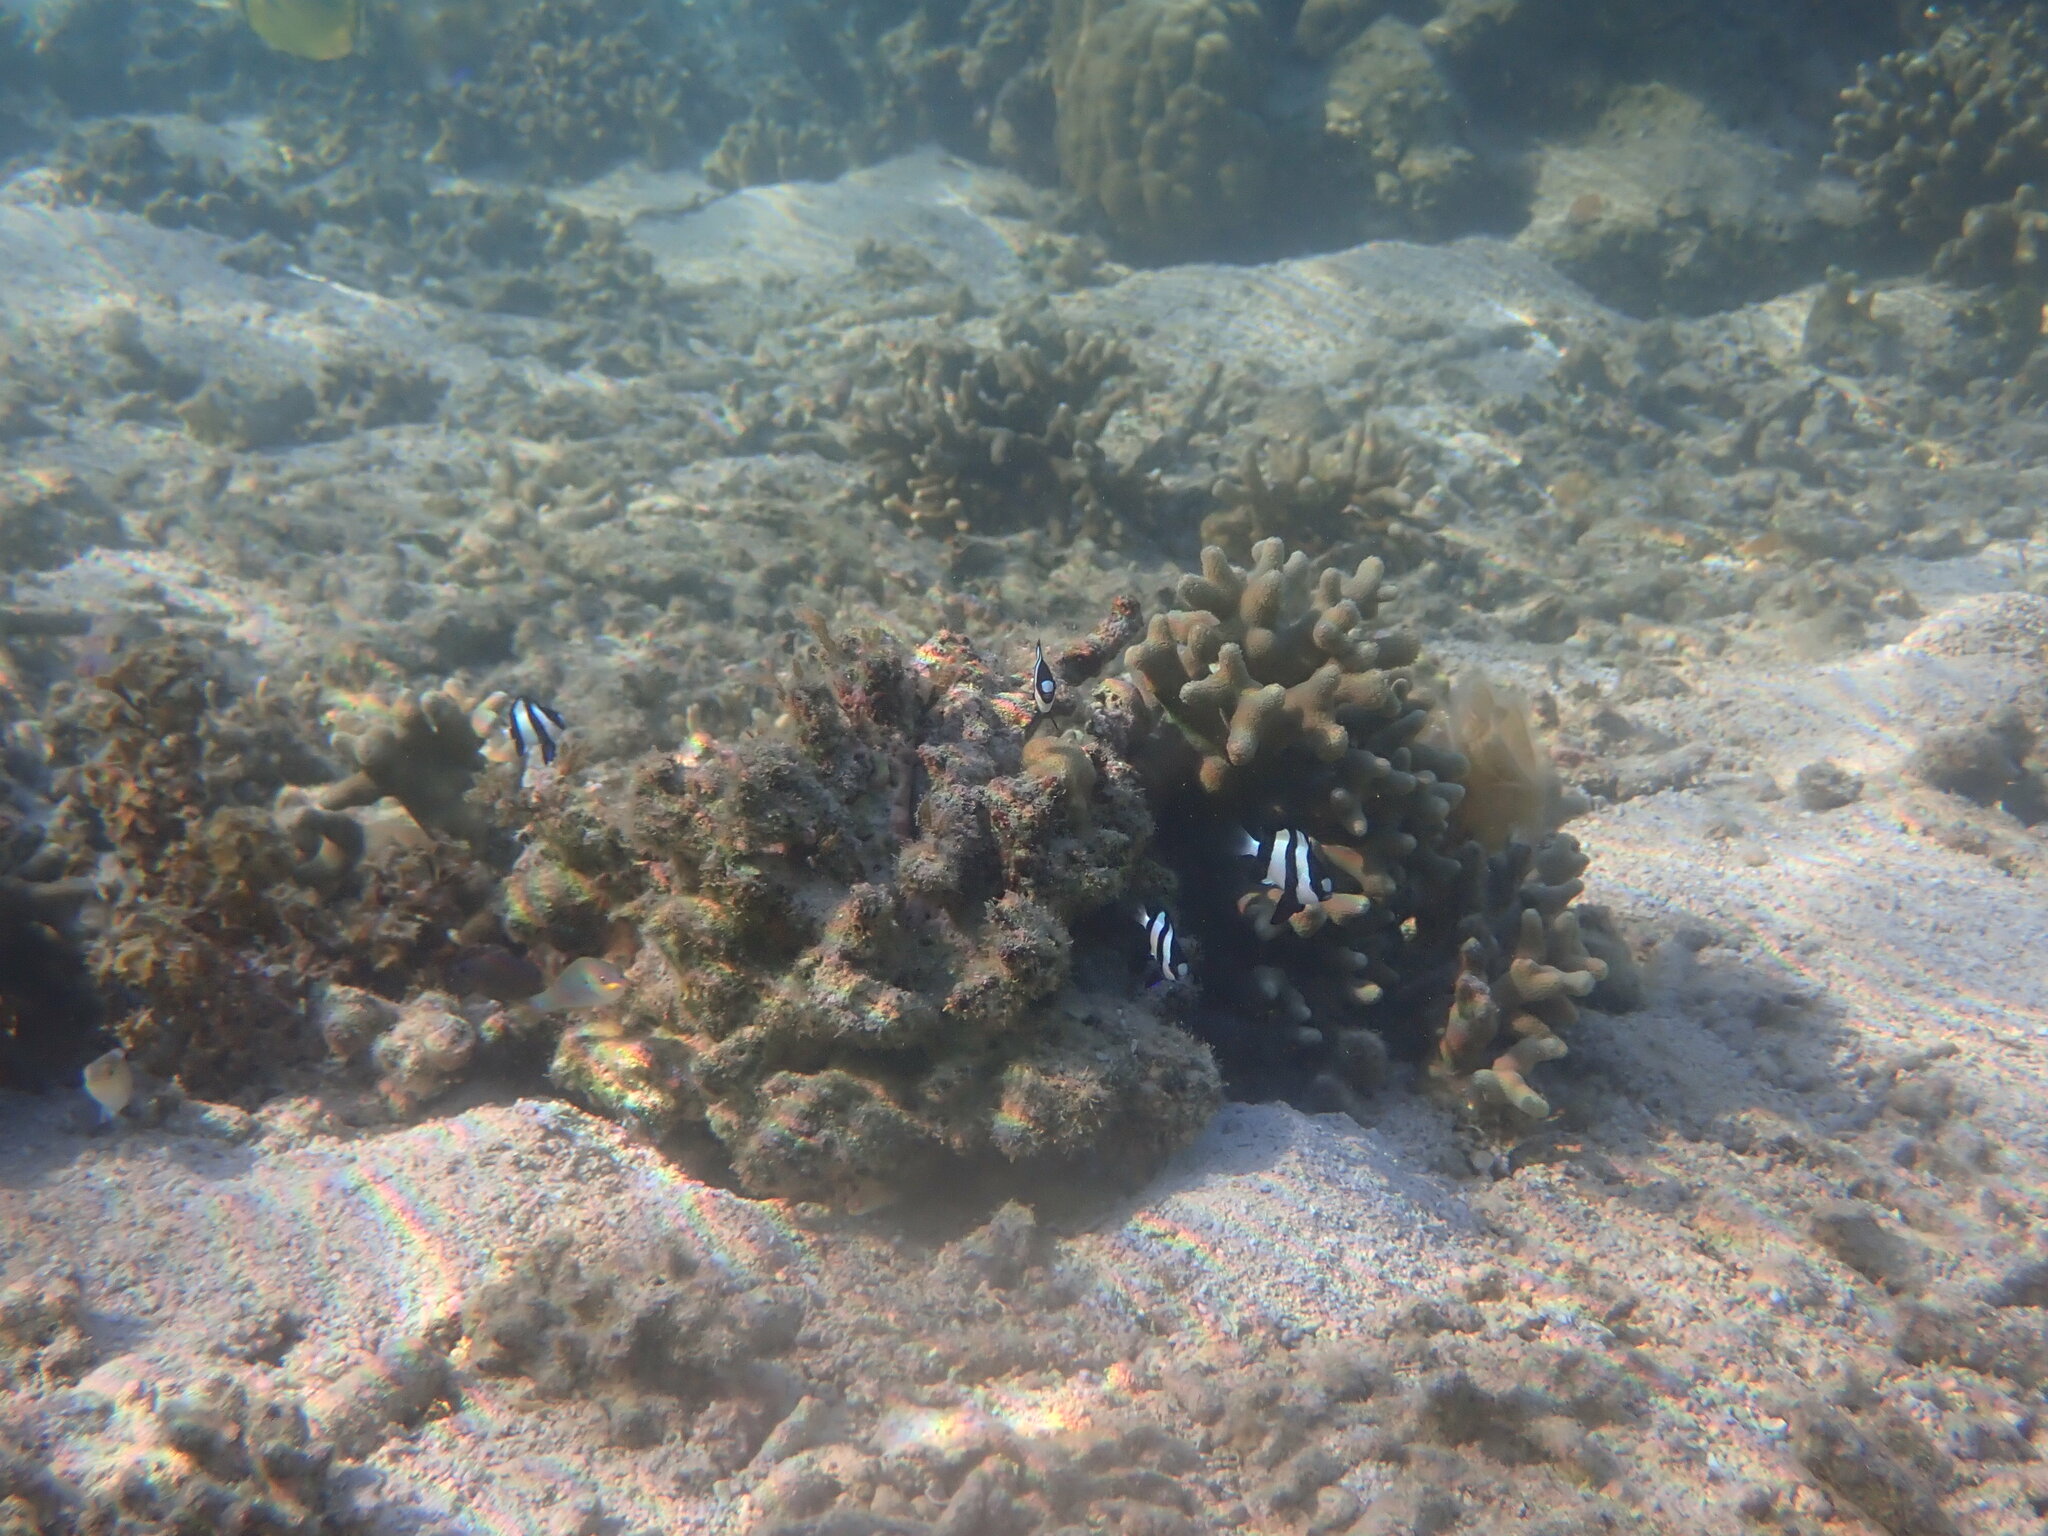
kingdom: Animalia
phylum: Chordata
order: Perciformes
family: Pomacentridae
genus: Dascyllus
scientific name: Dascyllus aruanus
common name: Humbug dascyllus
